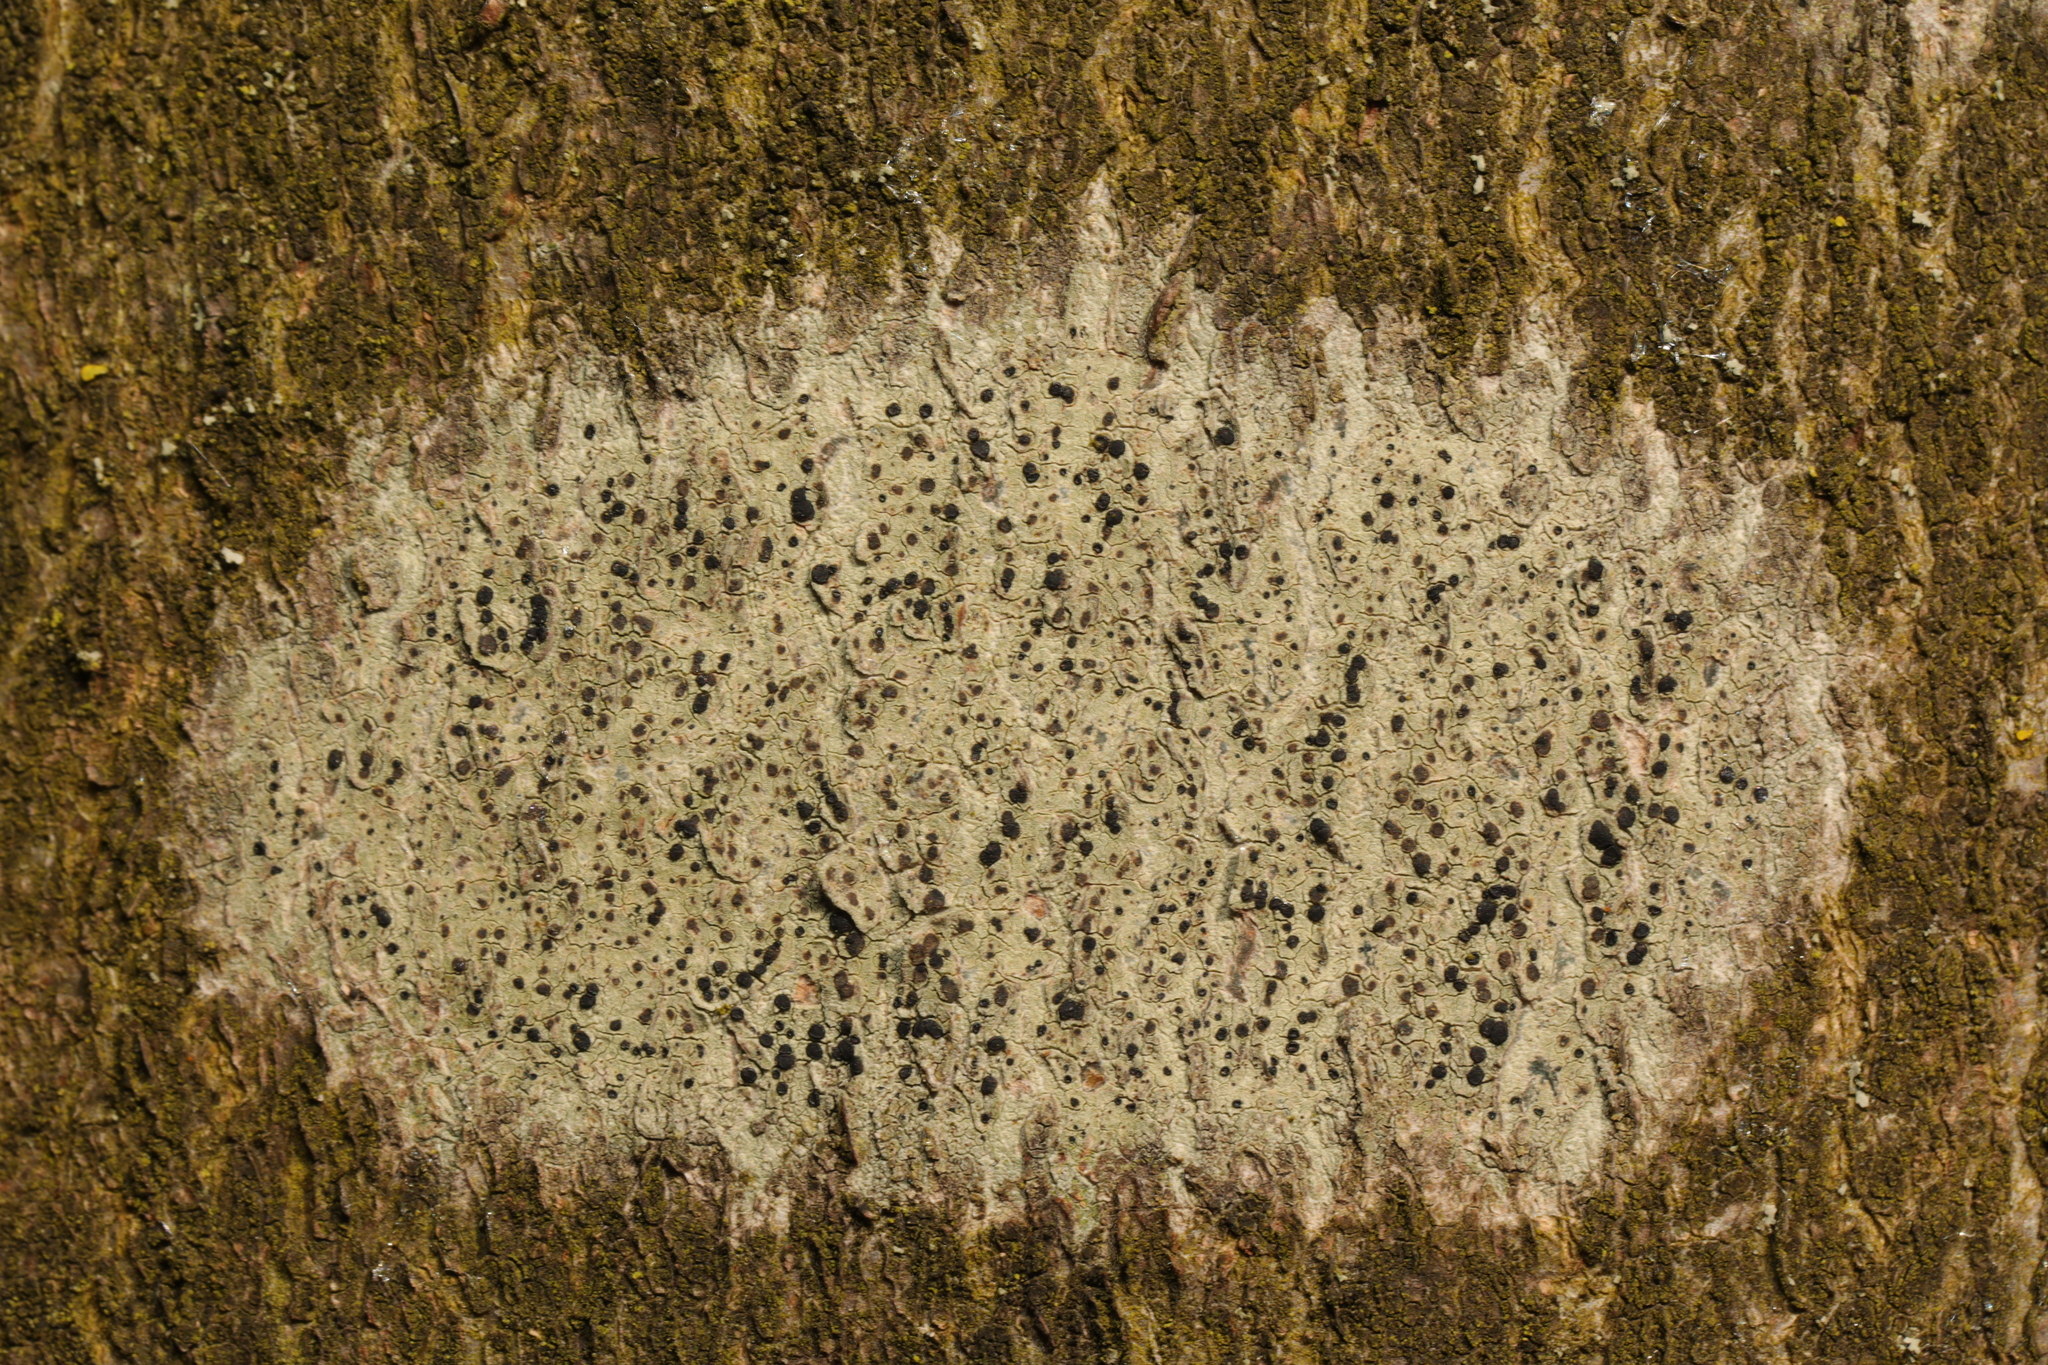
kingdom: Fungi
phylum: Ascomycota
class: Lecanoromycetes
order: Lecanorales
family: Lecanoraceae
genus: Lecidella
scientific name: Lecidella elaeochroma
